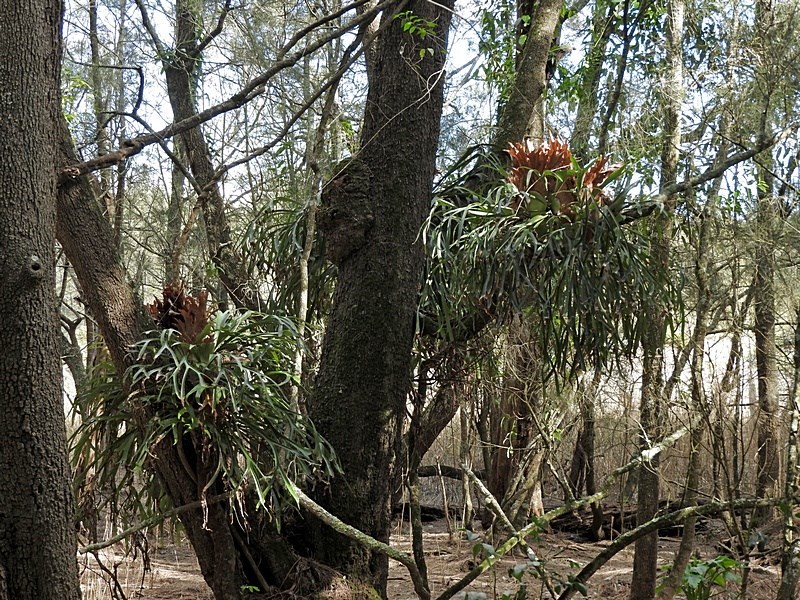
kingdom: Plantae
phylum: Tracheophyta
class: Polypodiopsida
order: Polypodiales
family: Polypodiaceae
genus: Platycerium
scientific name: Platycerium bifurcatum
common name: Elkhorn fern
